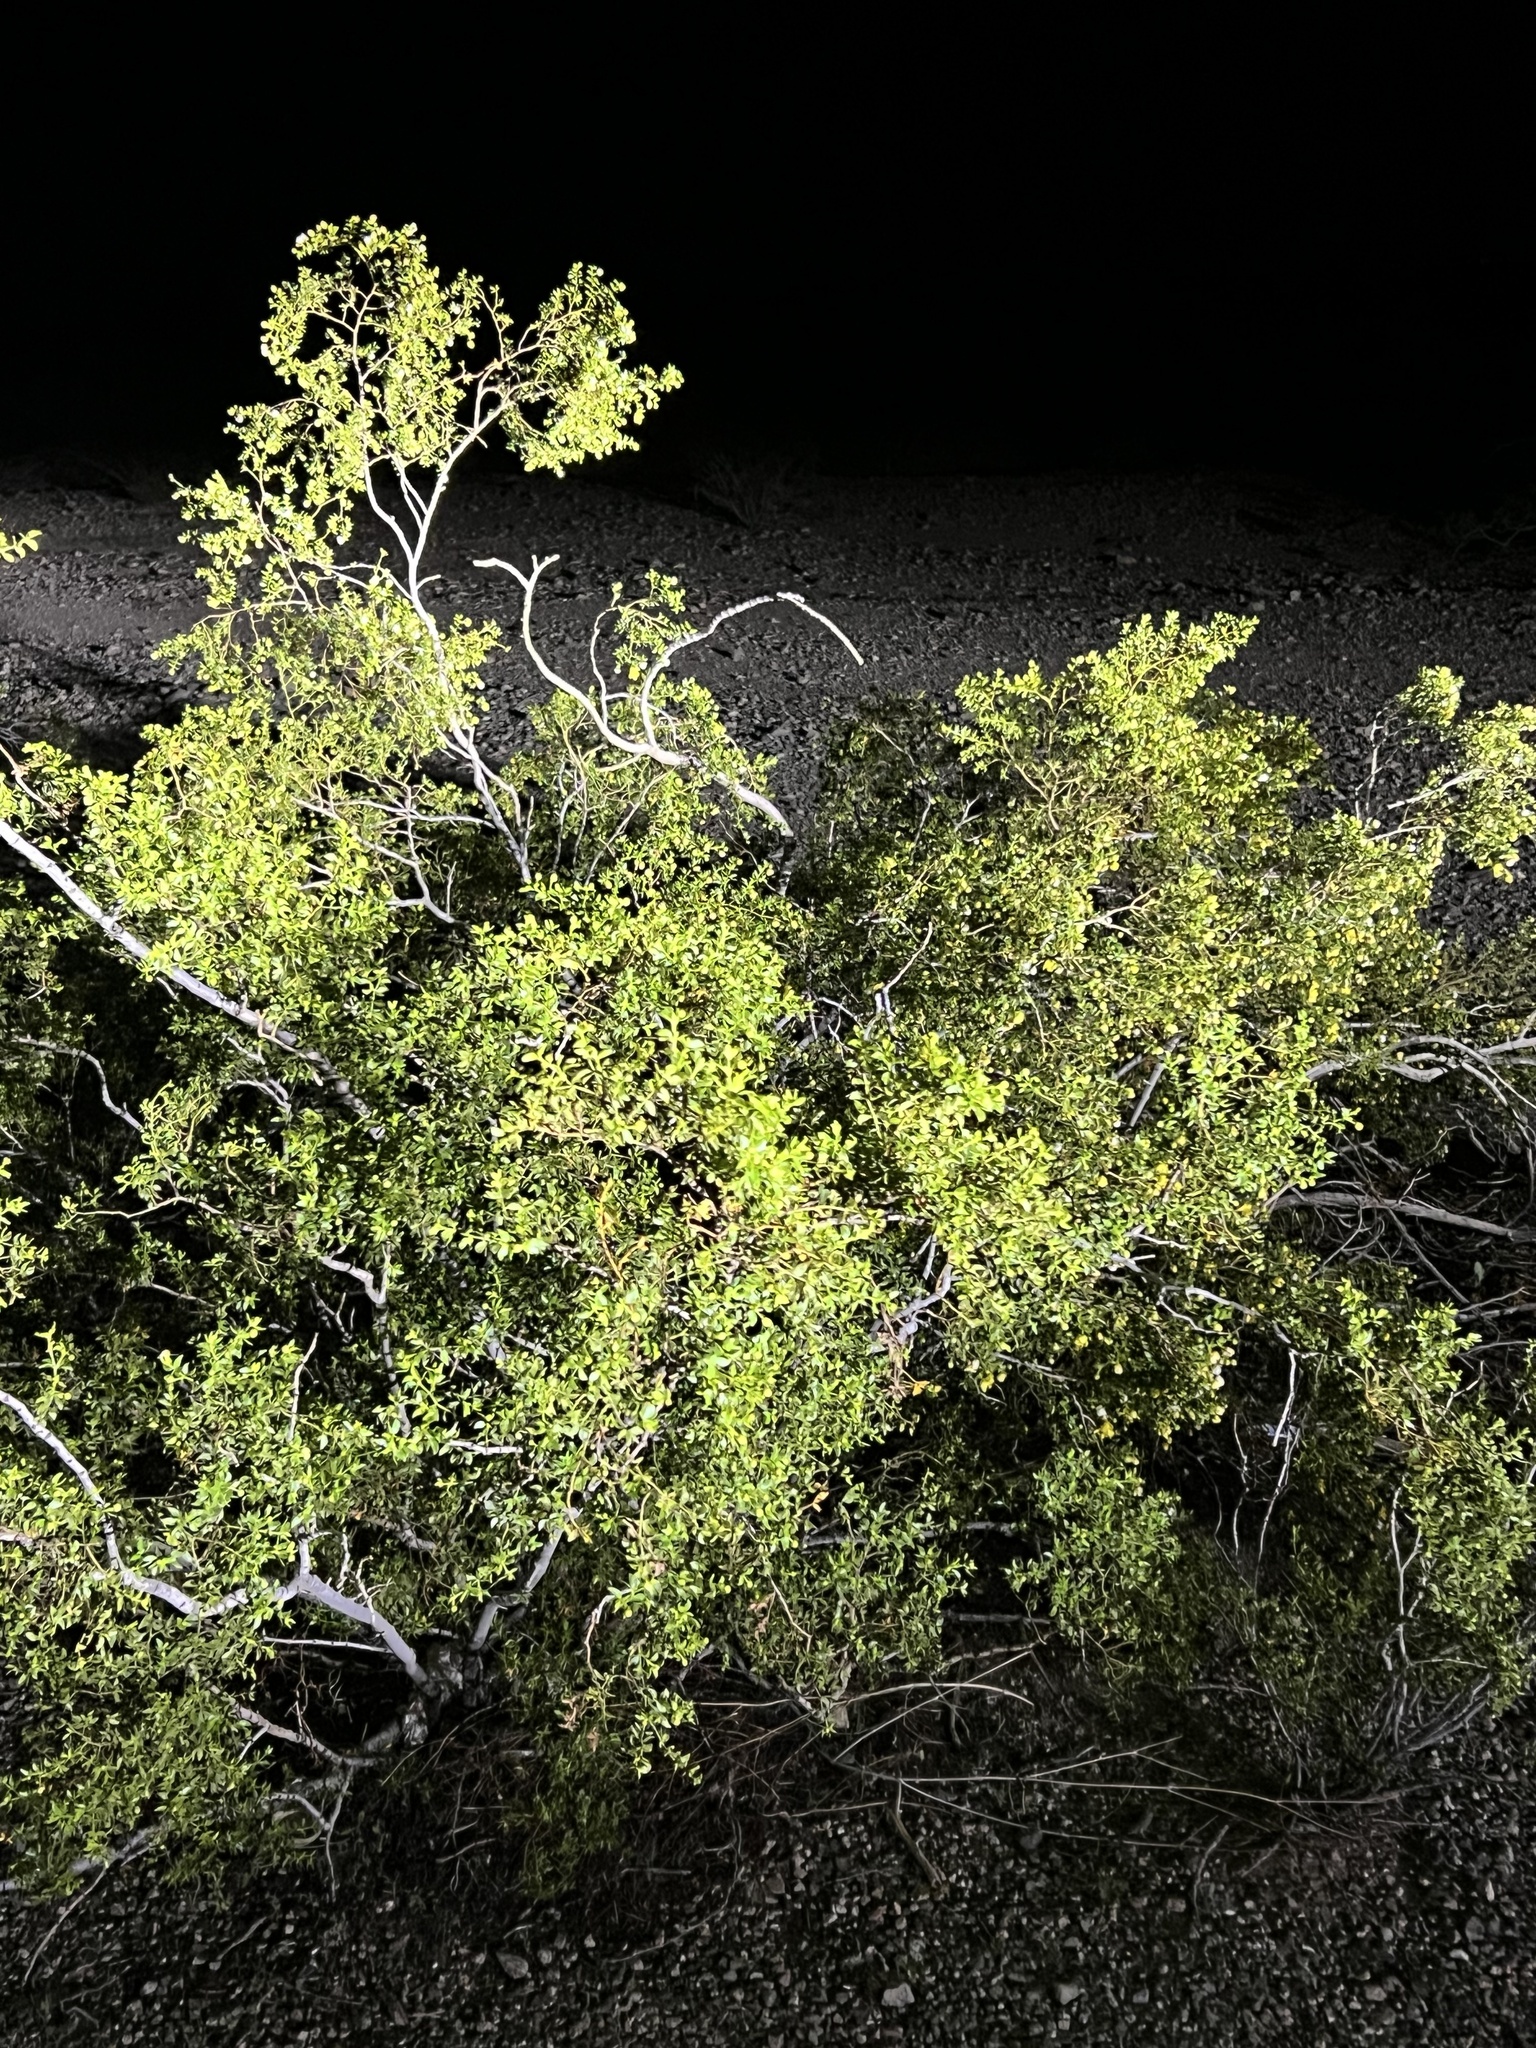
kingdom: Plantae
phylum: Tracheophyta
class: Magnoliopsida
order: Zygophyllales
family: Zygophyllaceae
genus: Larrea
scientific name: Larrea tridentata
